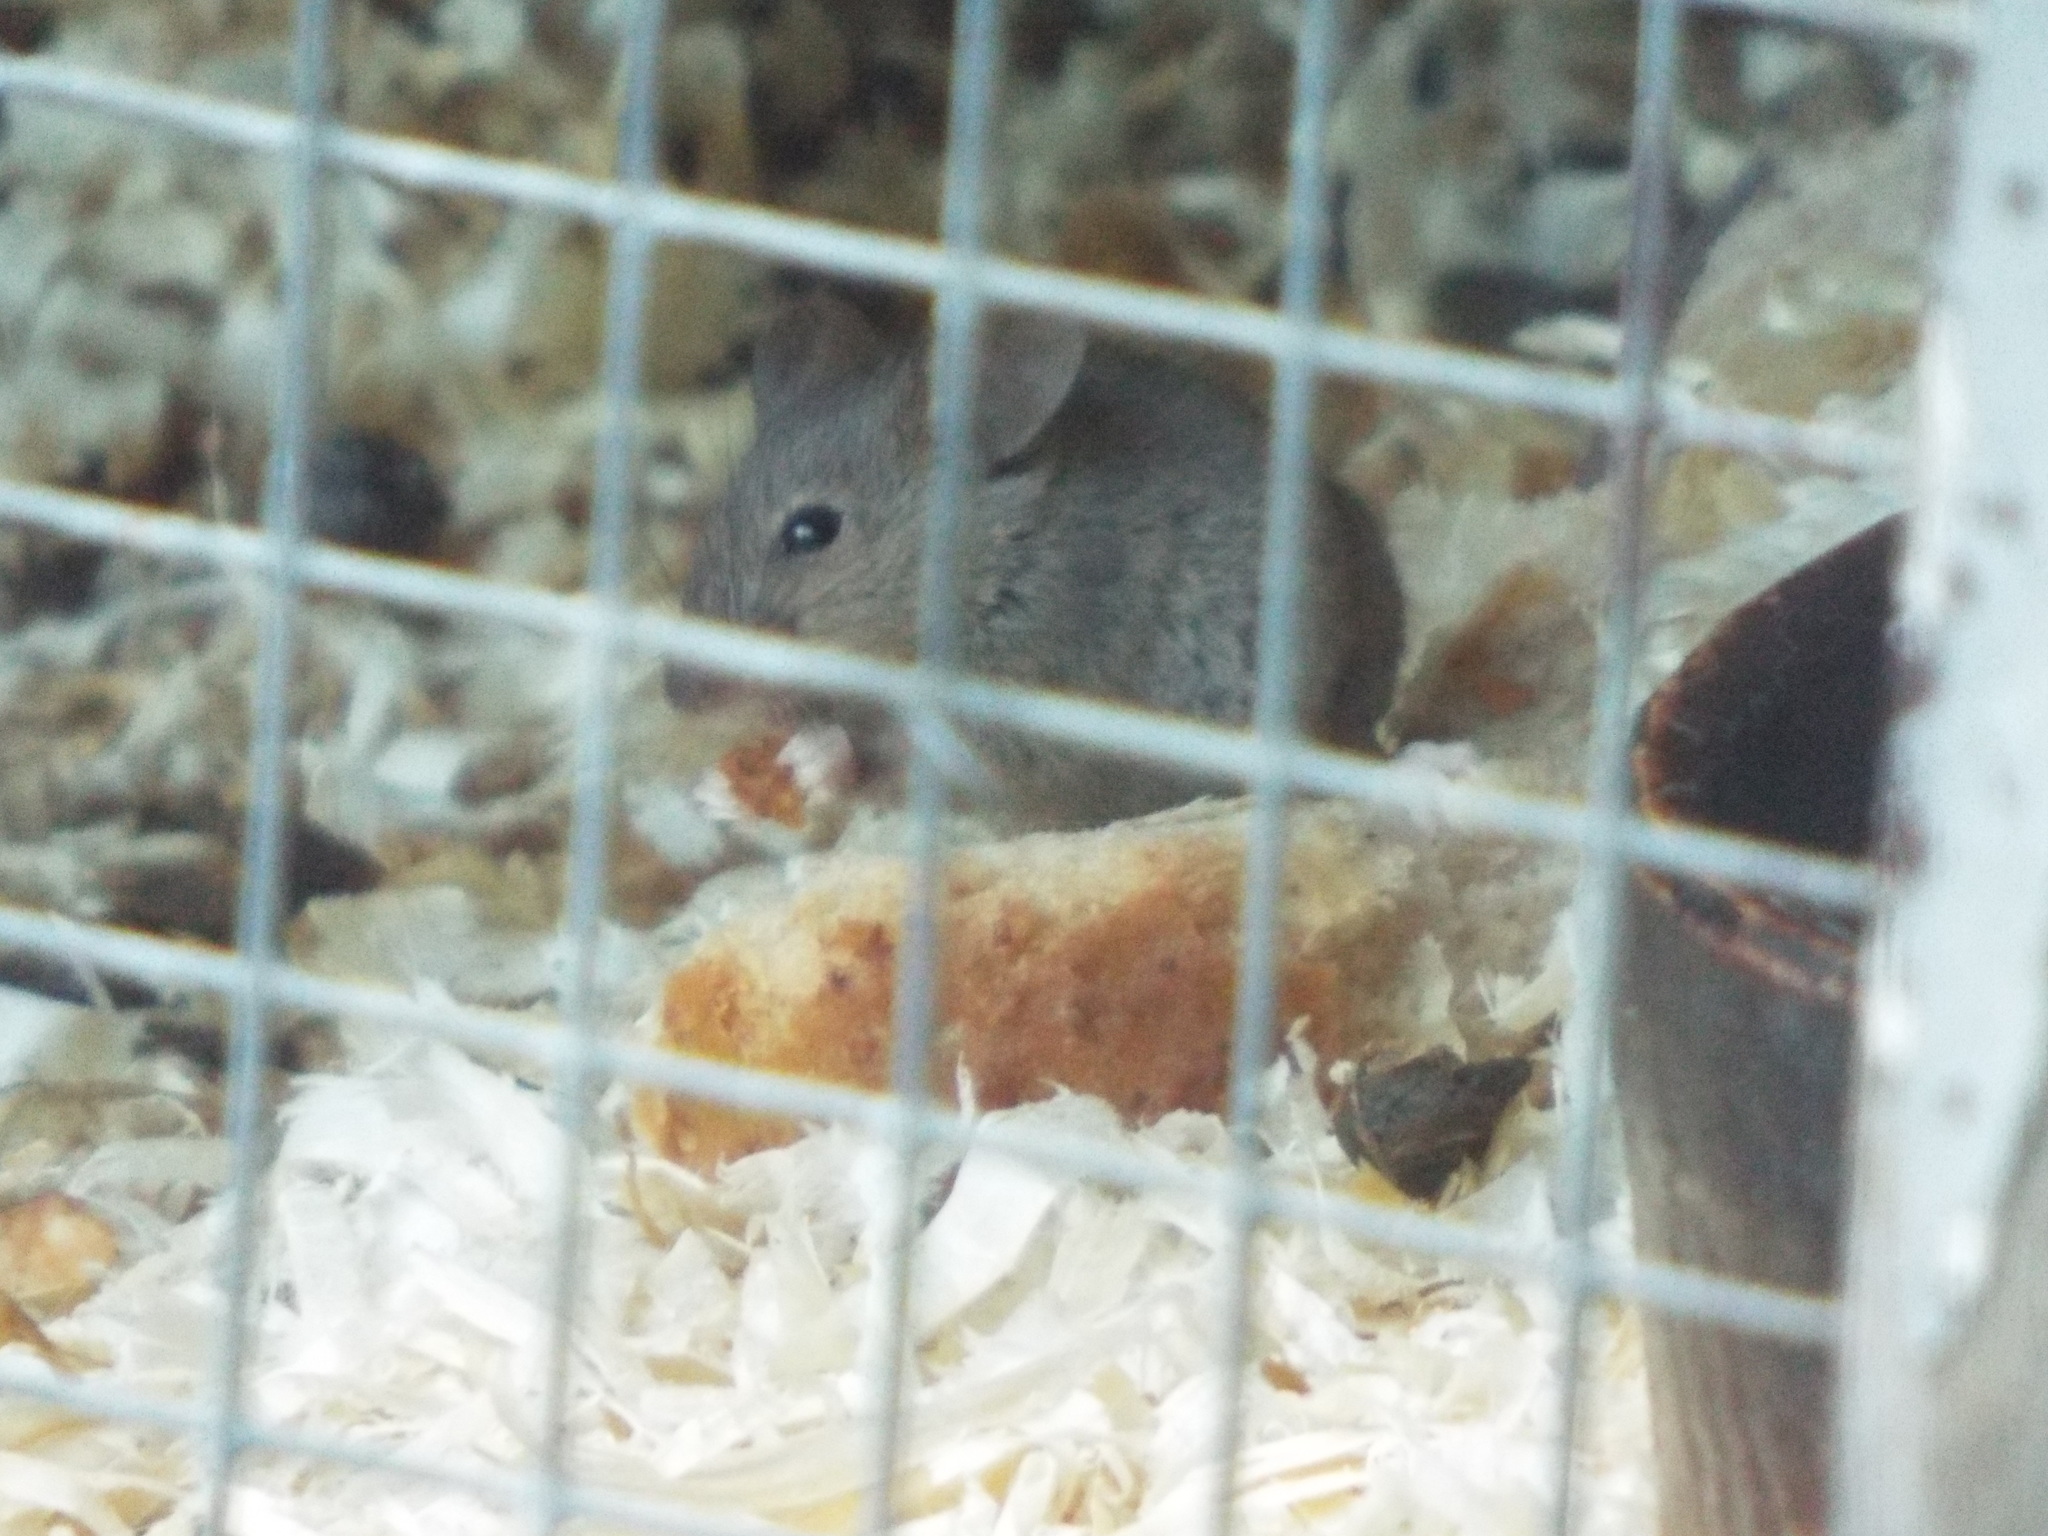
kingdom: Animalia
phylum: Chordata
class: Mammalia
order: Rodentia
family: Muridae
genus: Mus
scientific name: Mus musculus
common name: House mouse
